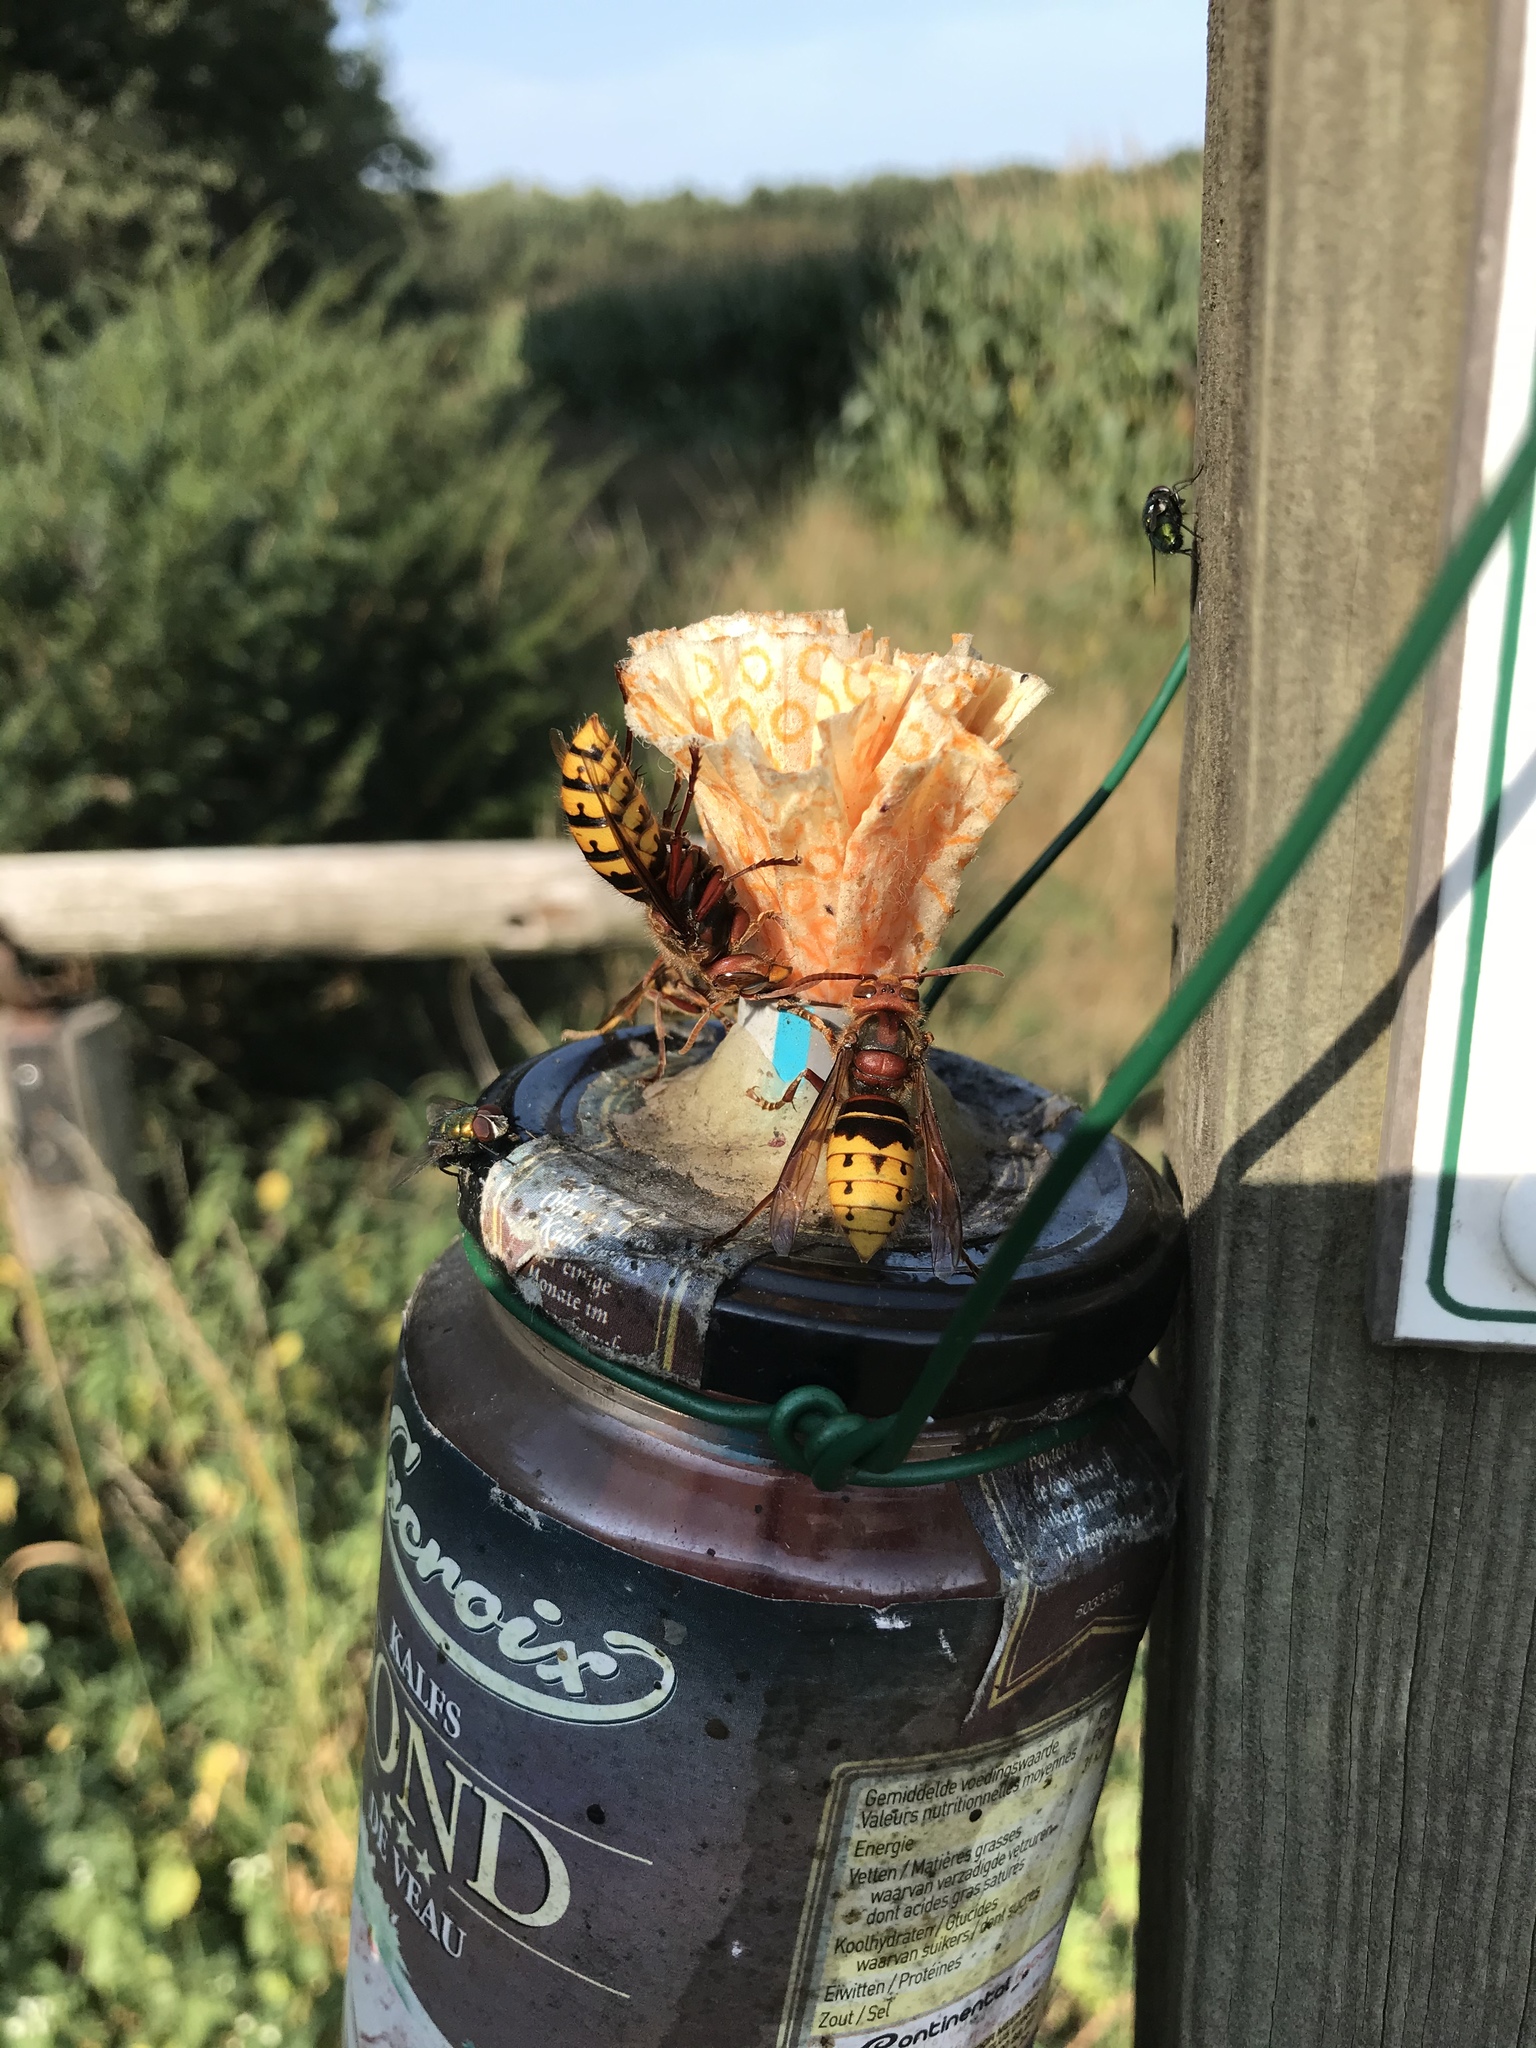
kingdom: Animalia
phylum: Arthropoda
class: Insecta
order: Hymenoptera
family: Vespidae
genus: Vespa
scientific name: Vespa crabro
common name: Hornet
